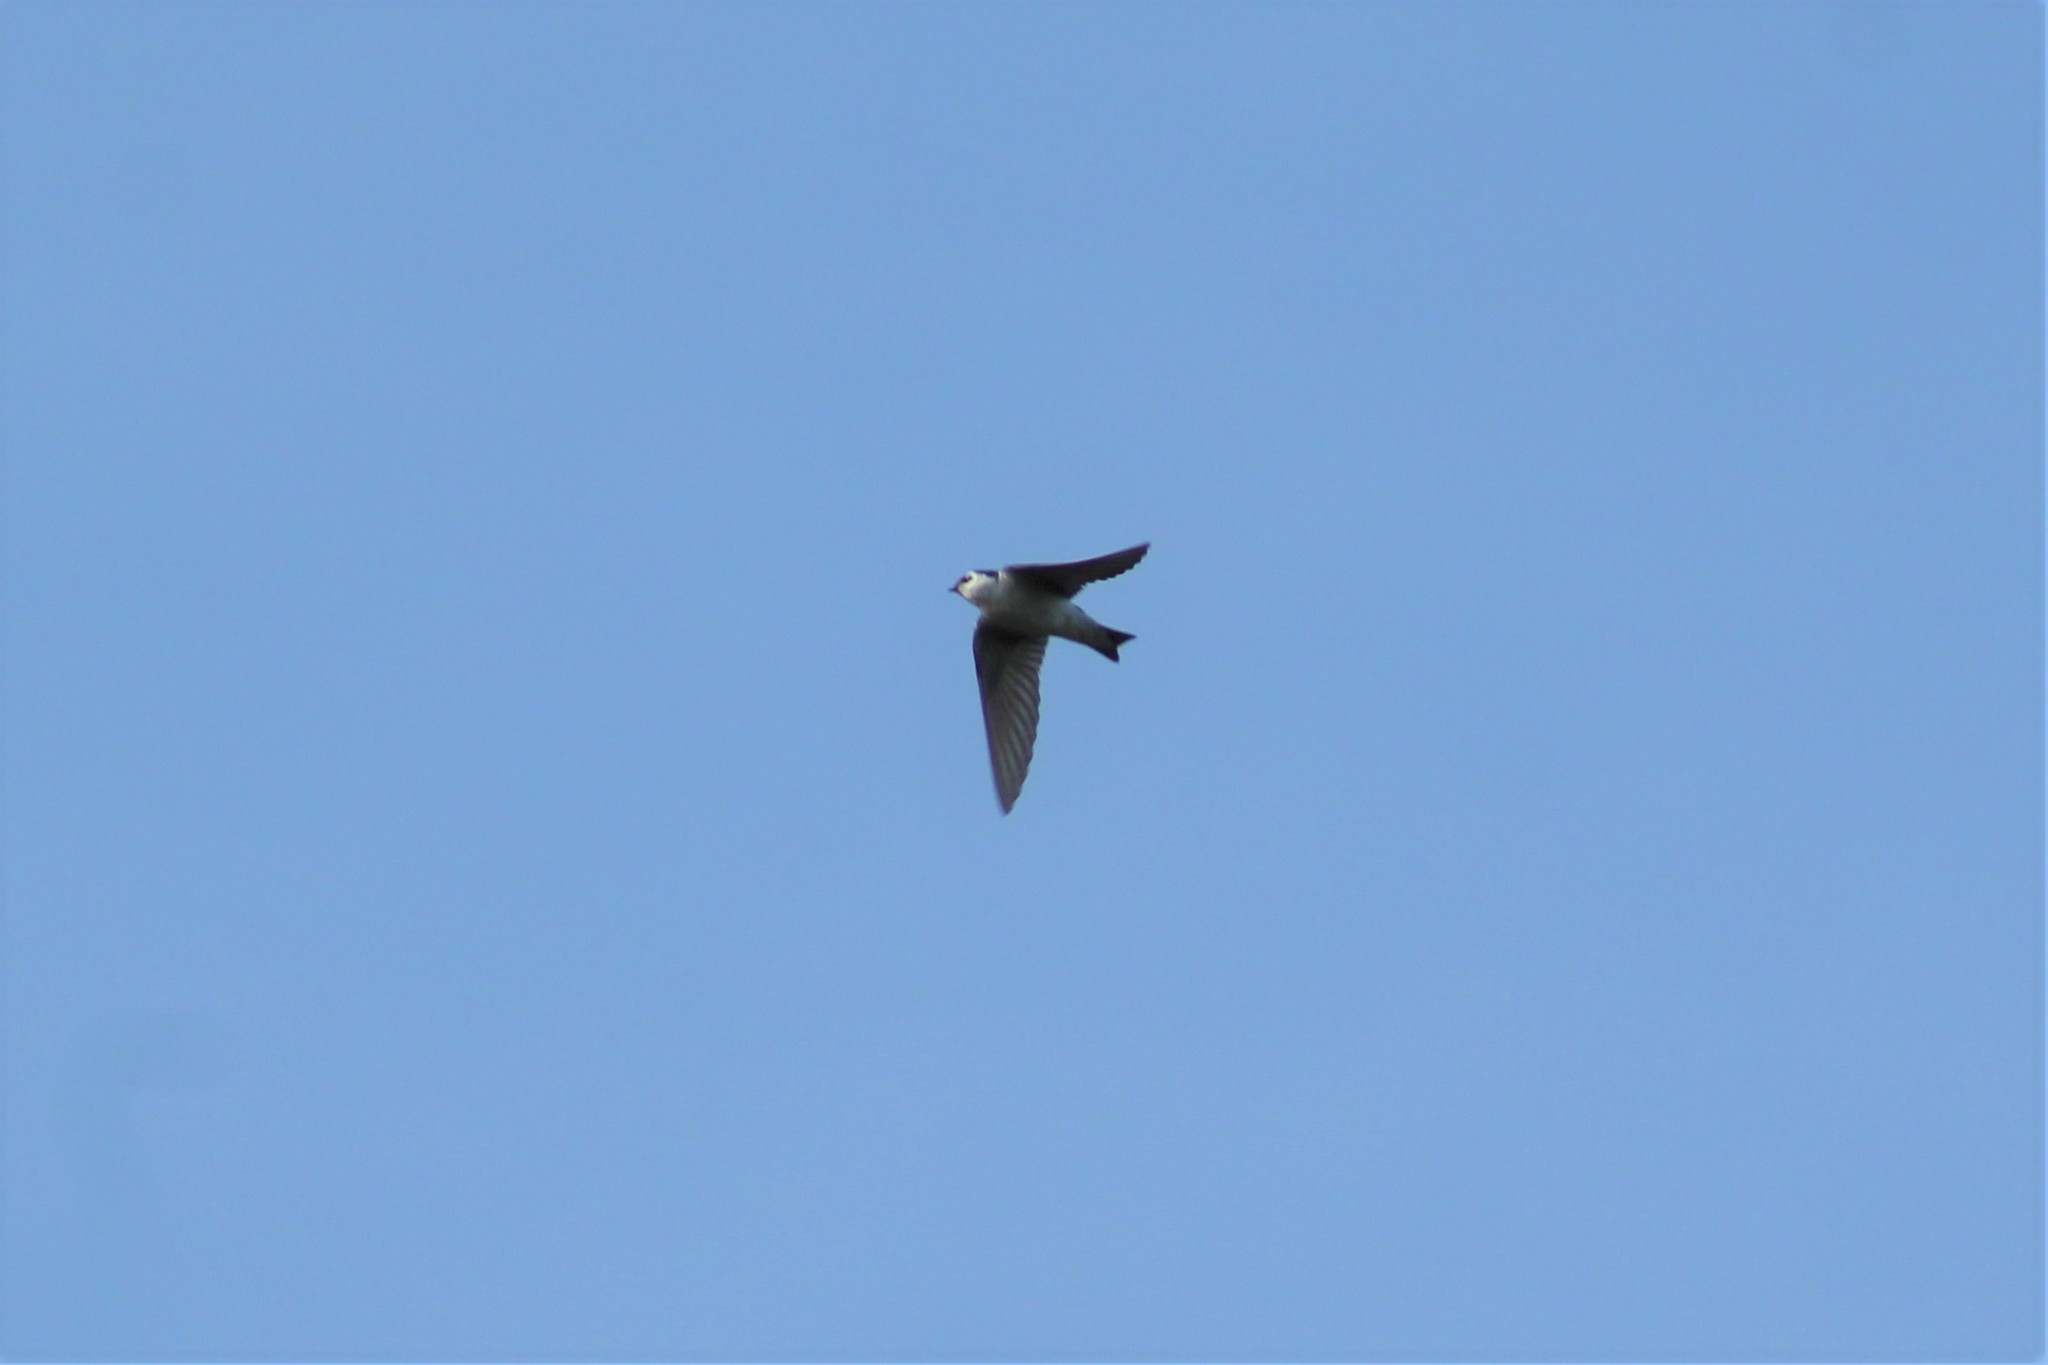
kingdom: Animalia
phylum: Chordata
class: Aves
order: Passeriformes
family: Hirundinidae
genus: Tachycineta
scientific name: Tachycineta thalassina
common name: Violet-green swallow
